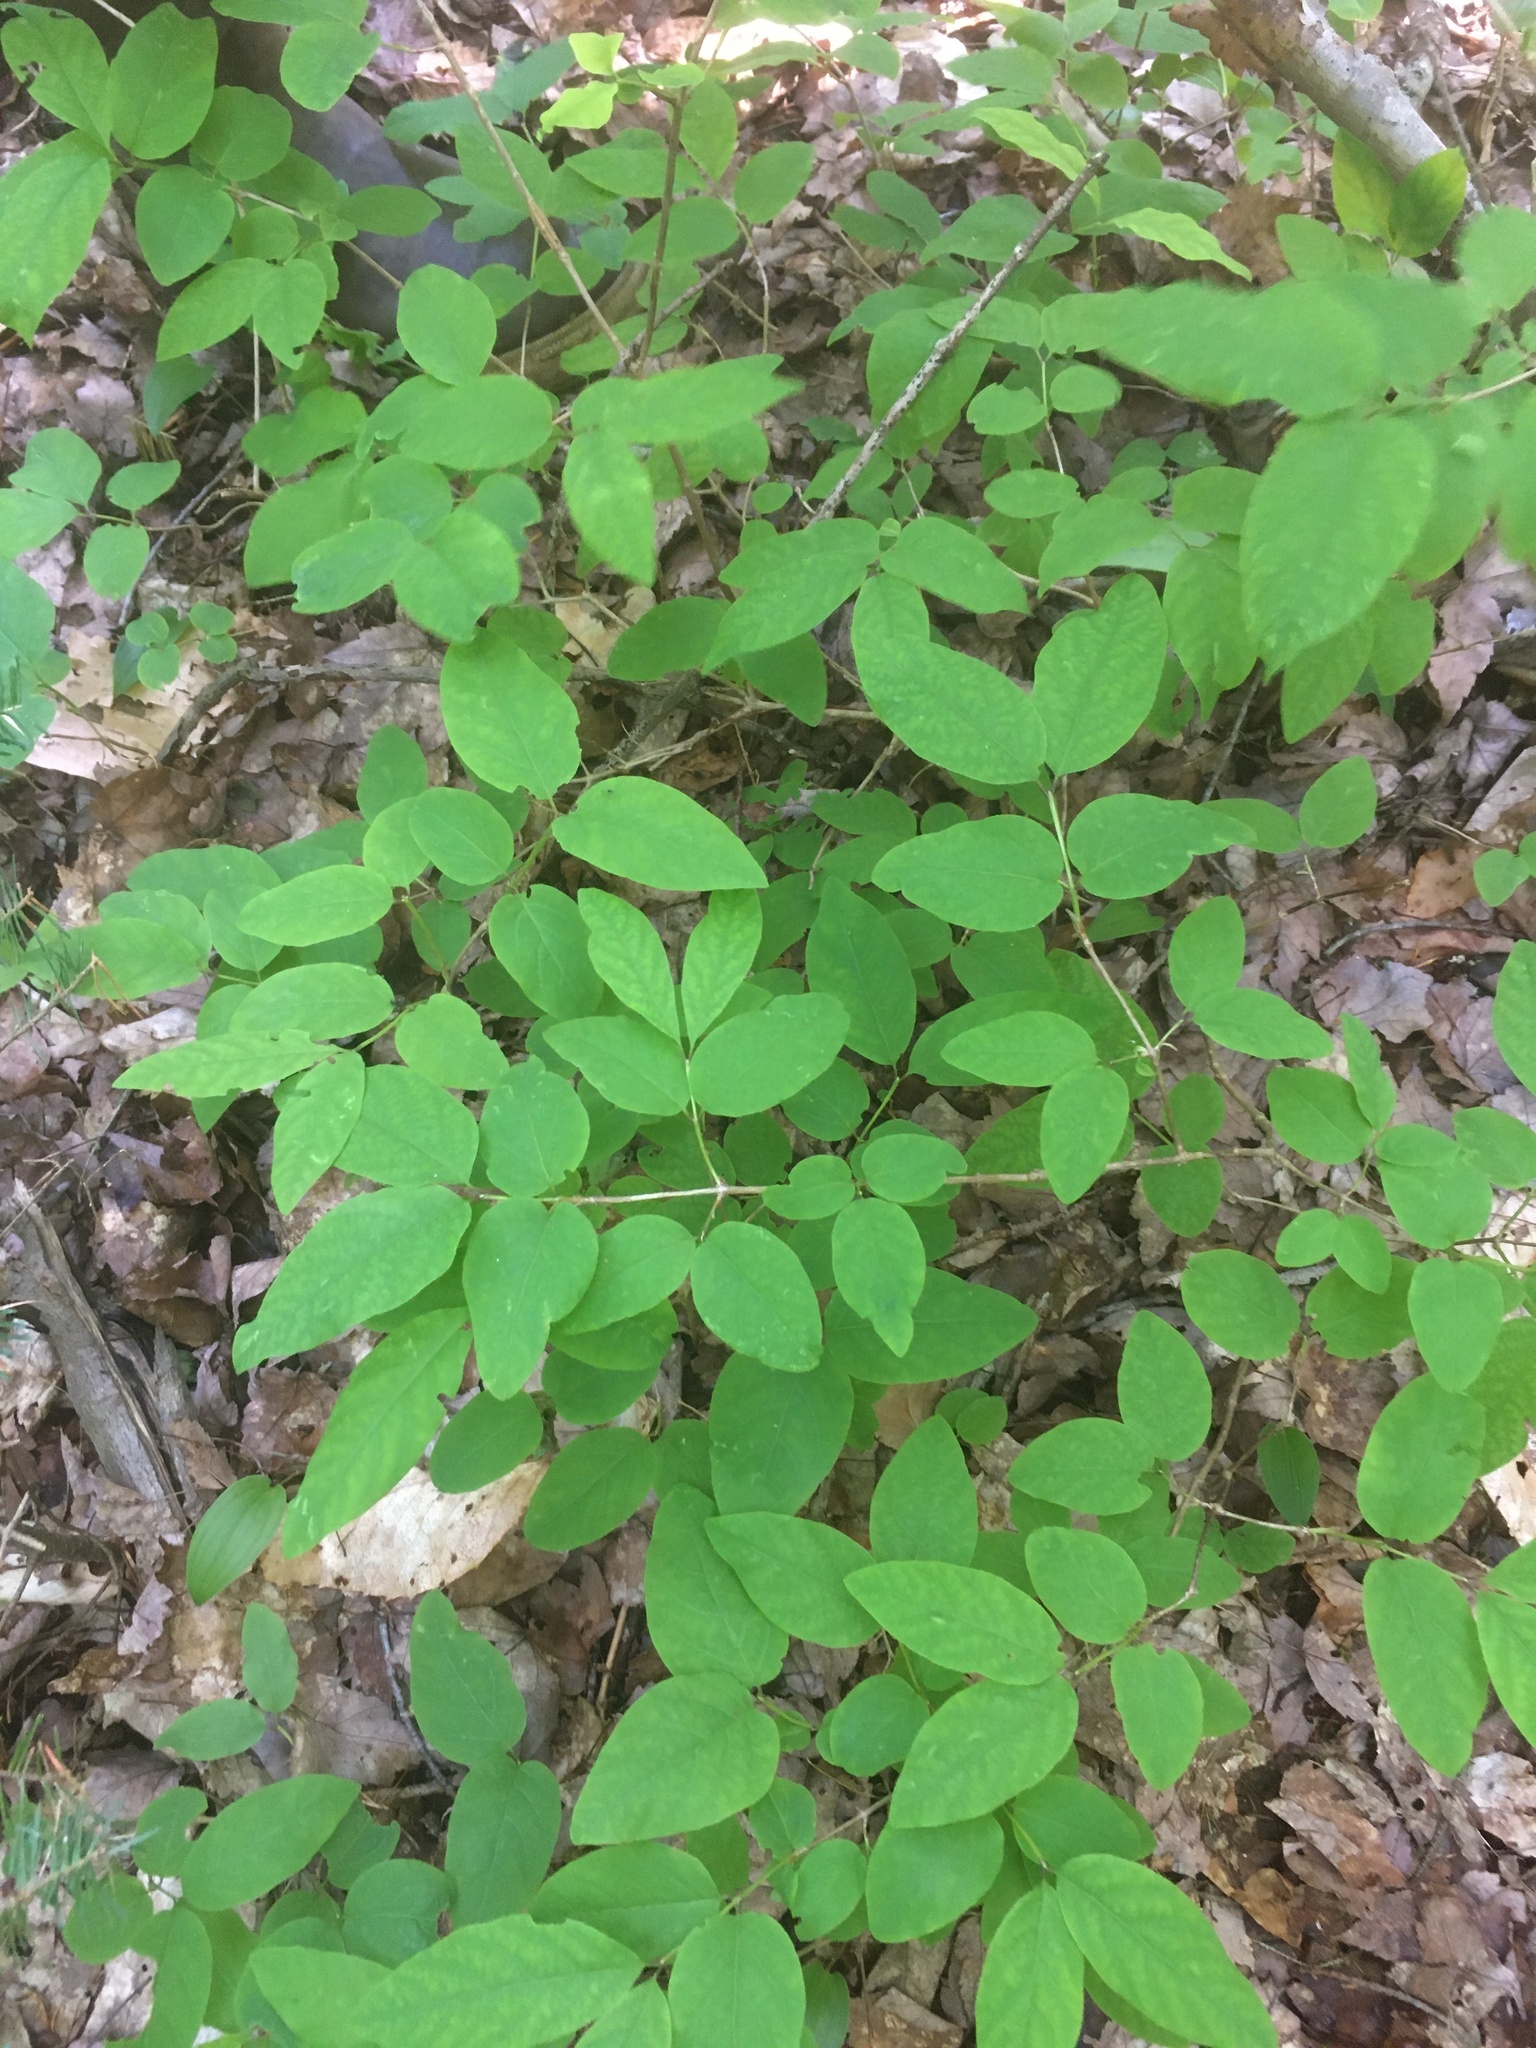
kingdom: Plantae
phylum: Tracheophyta
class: Magnoliopsida
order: Dipsacales
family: Caprifoliaceae
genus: Lonicera
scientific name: Lonicera canadensis
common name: American fly-honeysuckle
